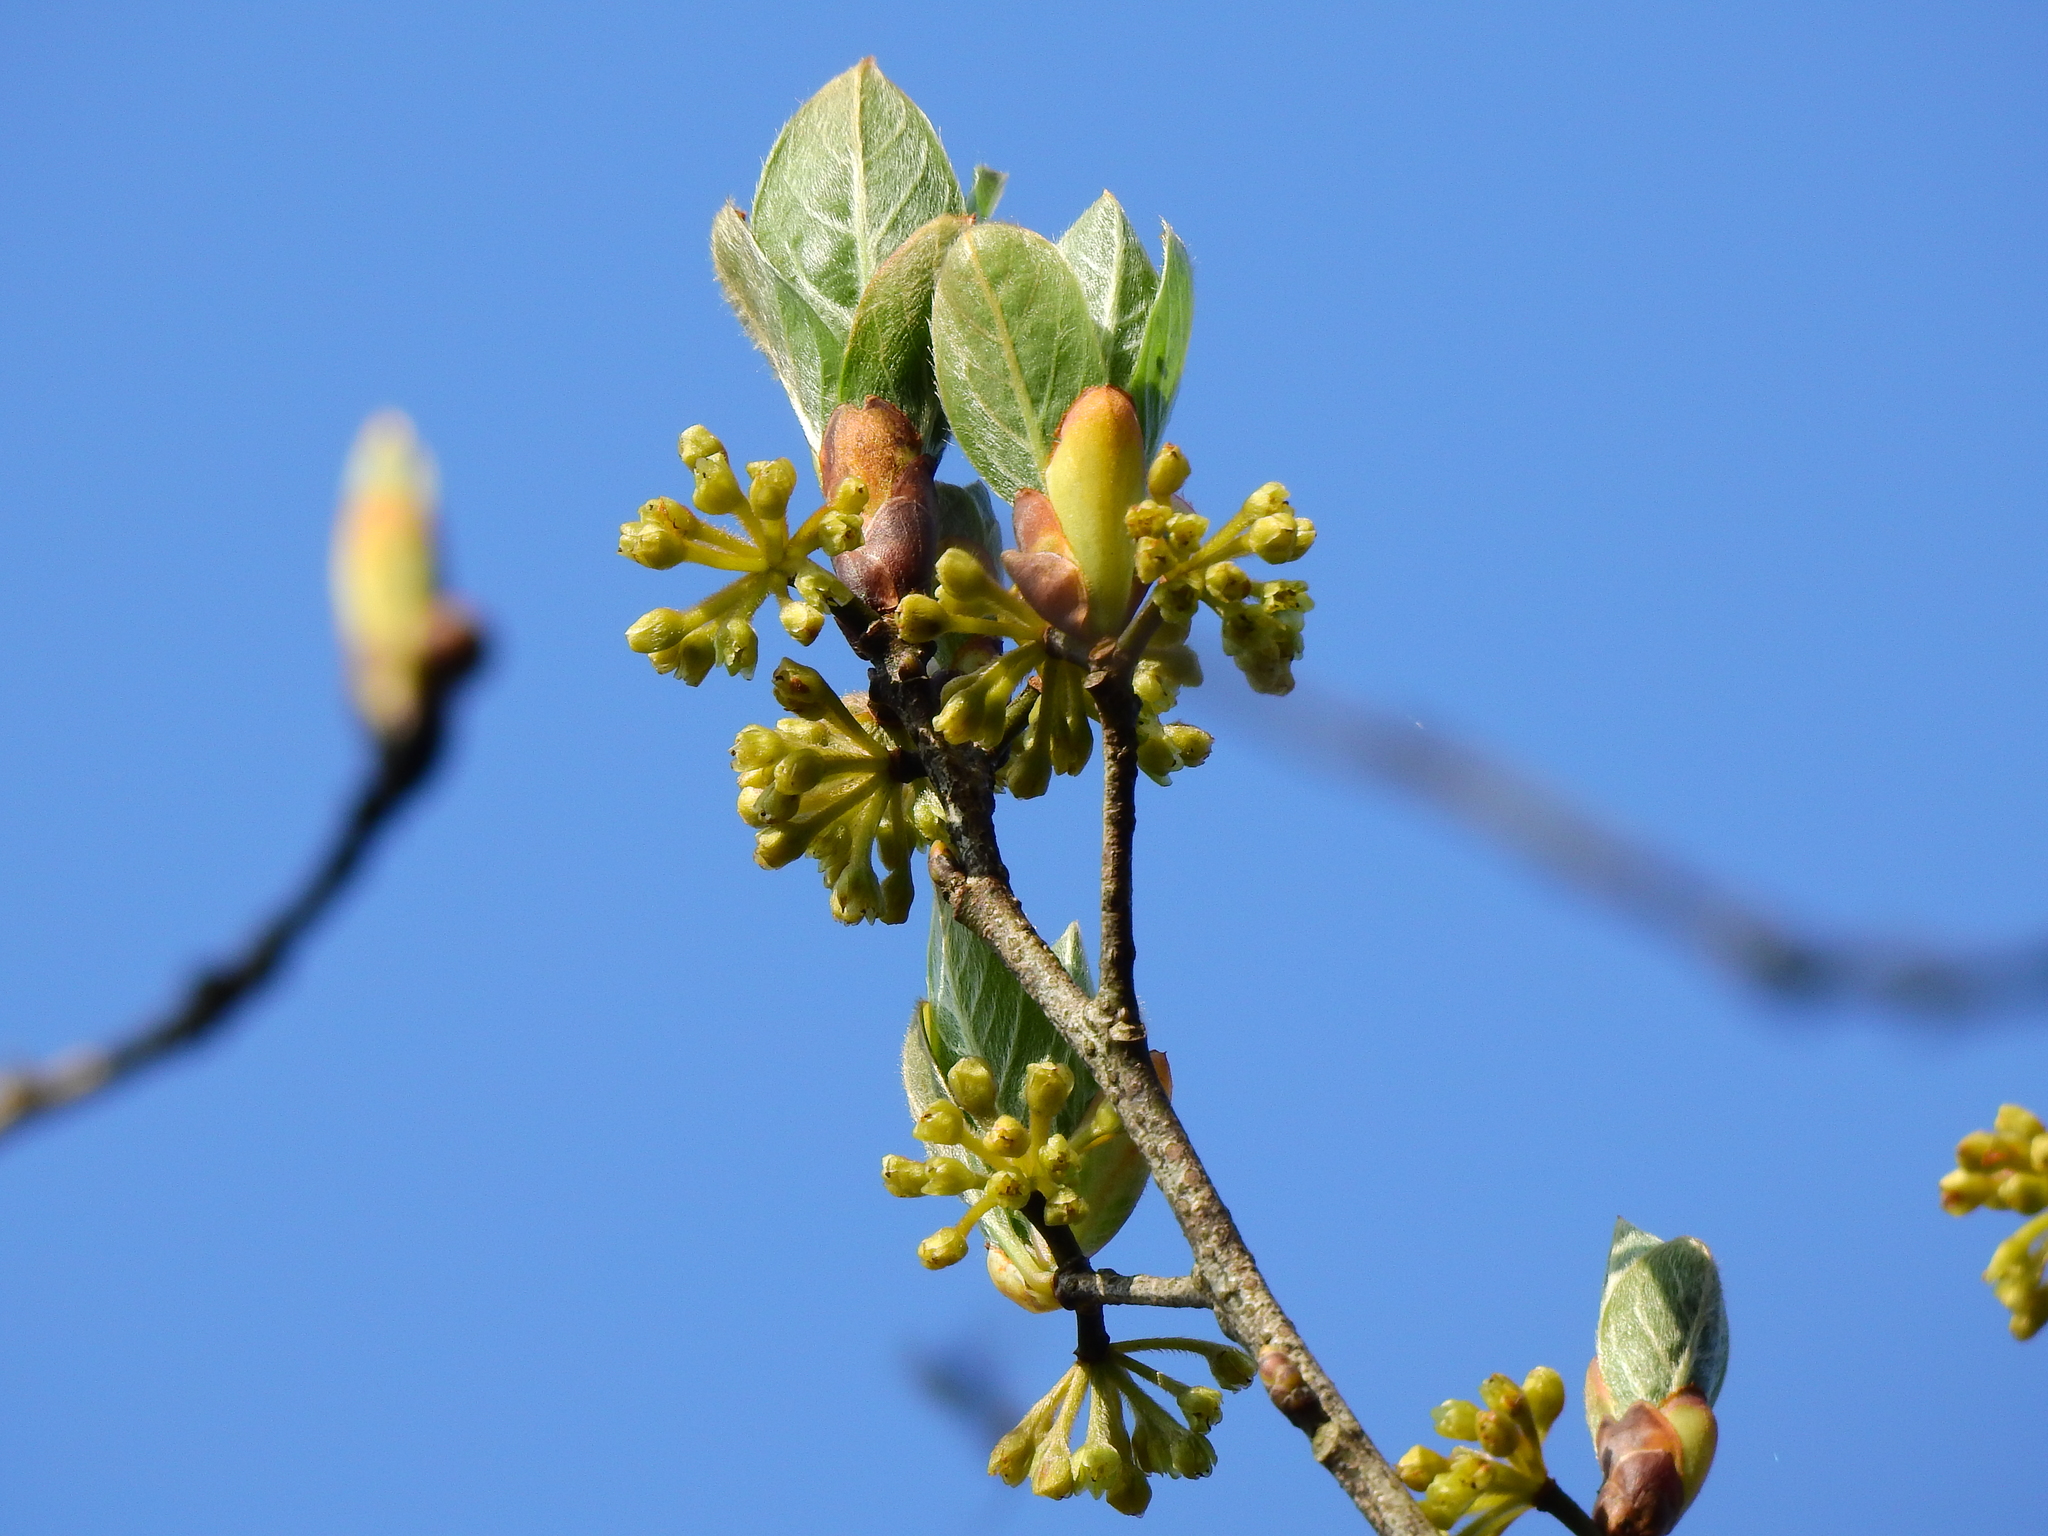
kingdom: Plantae
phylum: Tracheophyta
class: Magnoliopsida
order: Laurales
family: Lauraceae
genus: Lindera
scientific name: Lindera erythrocarpa
